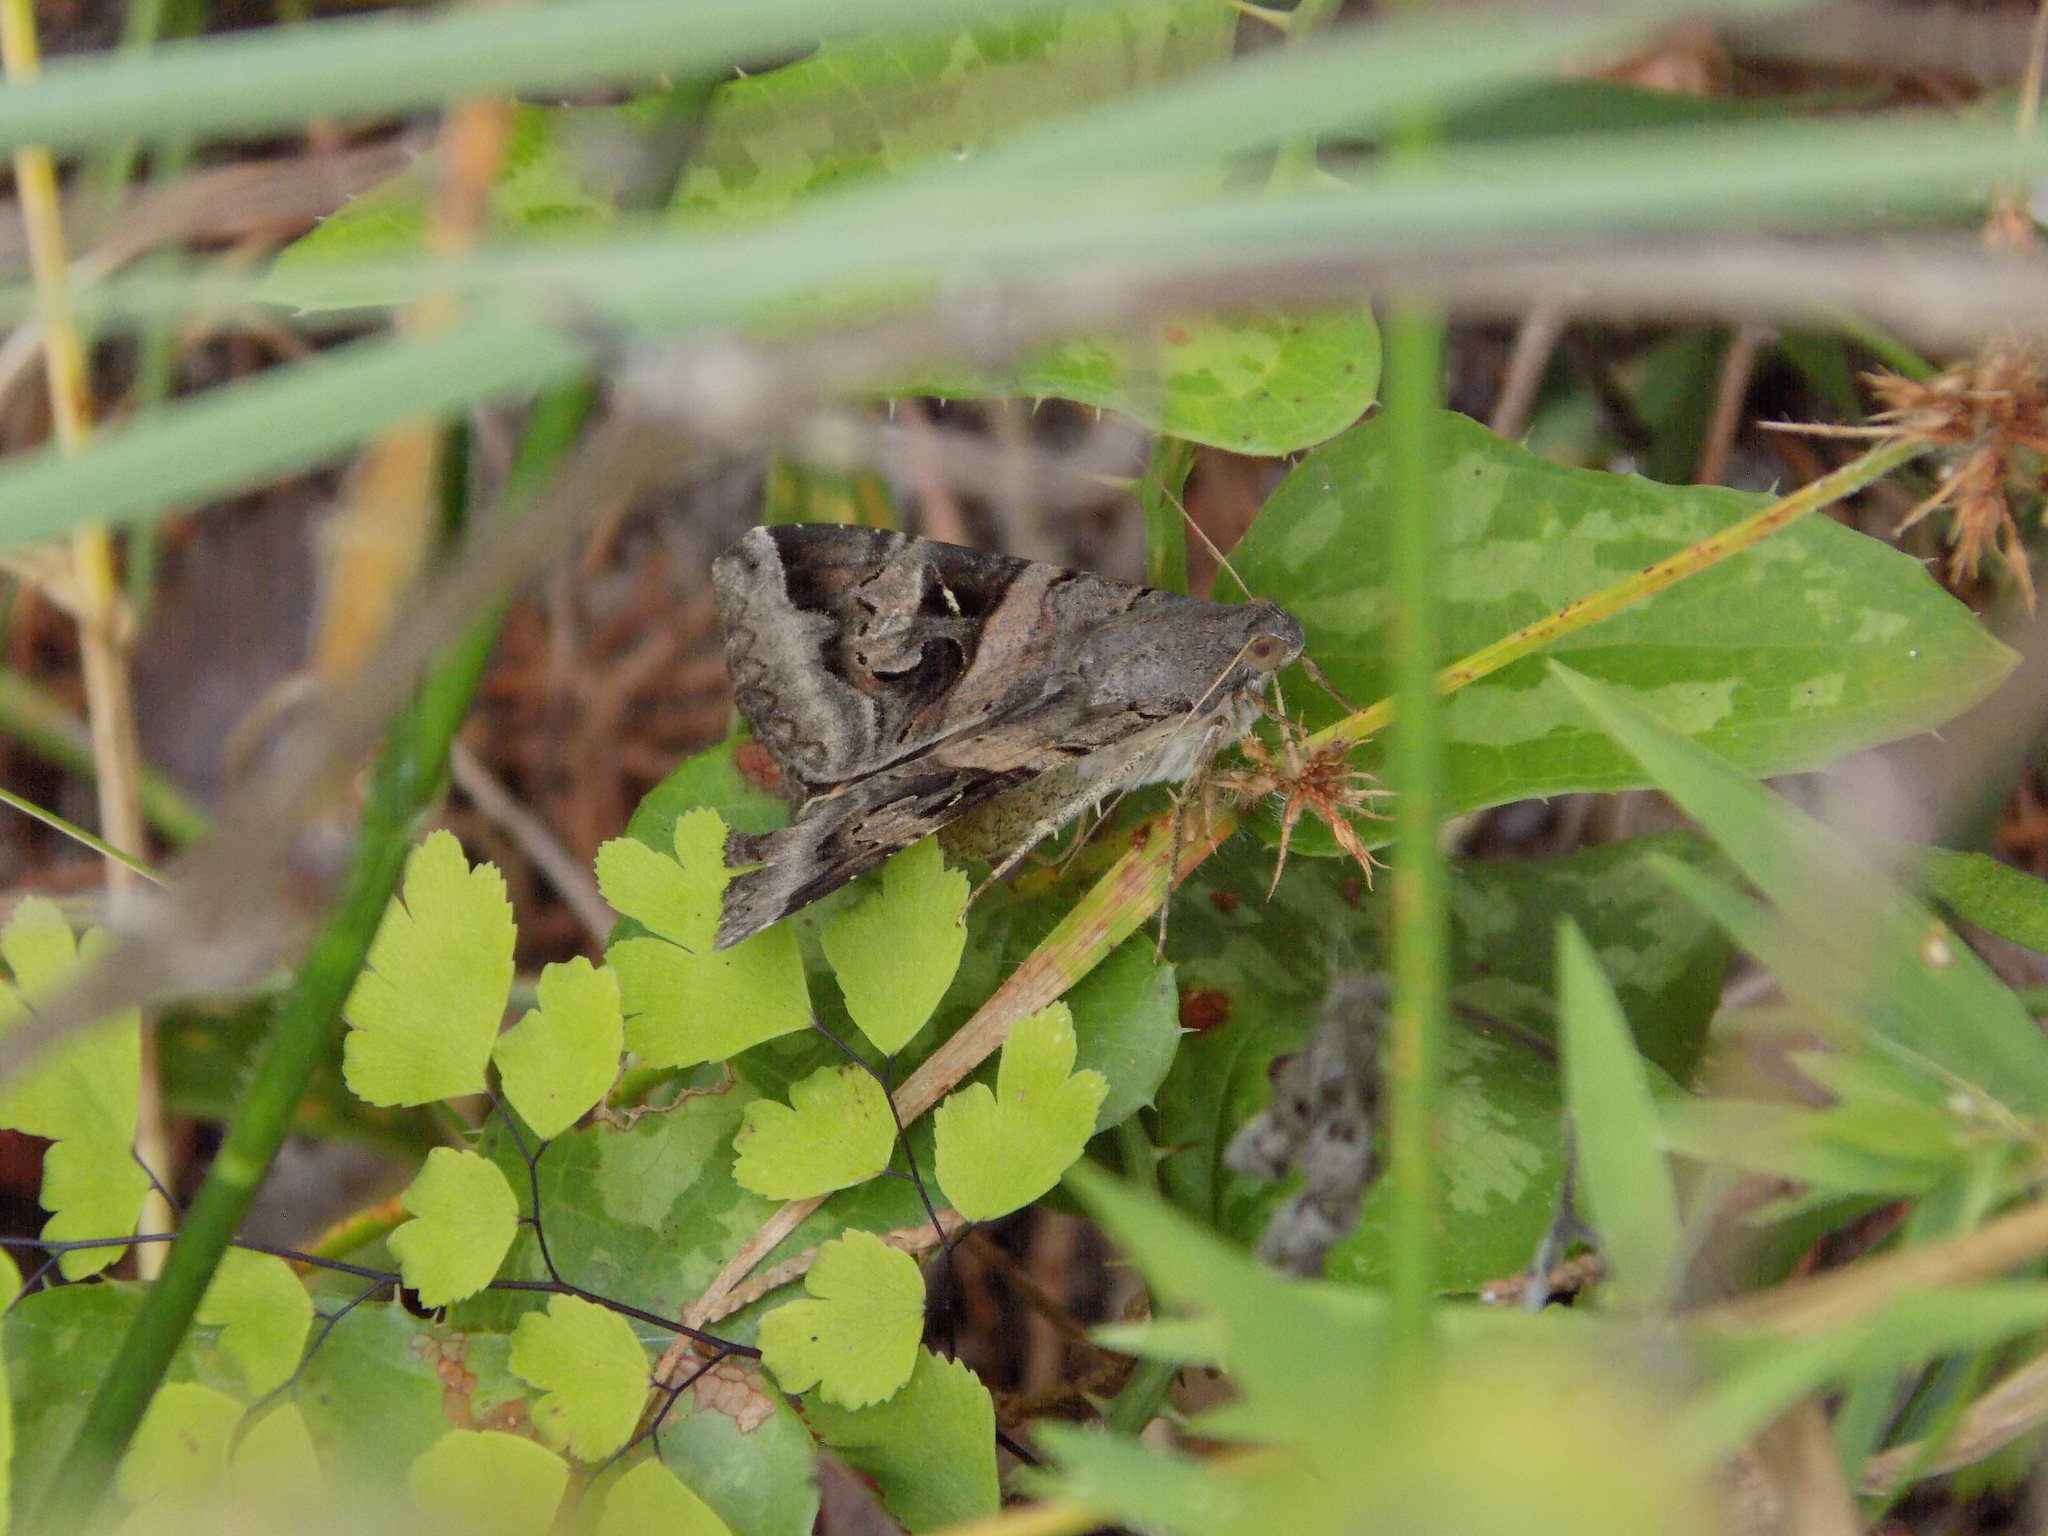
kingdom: Animalia
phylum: Arthropoda
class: Insecta
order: Lepidoptera
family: Erebidae
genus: Melipotis
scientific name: Melipotis indomita
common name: Moth
